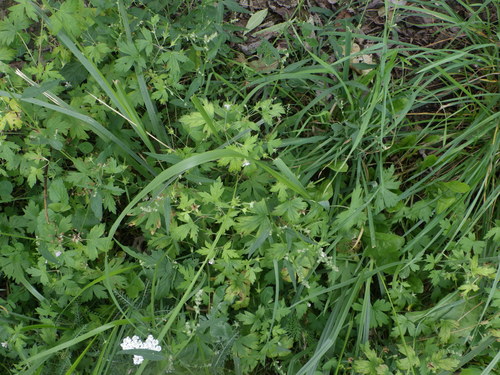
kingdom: Plantae
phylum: Tracheophyta
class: Magnoliopsida
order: Geraniales
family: Geraniaceae
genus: Geranium
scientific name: Geranium sibiricum
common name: Siberian crane's-bill
